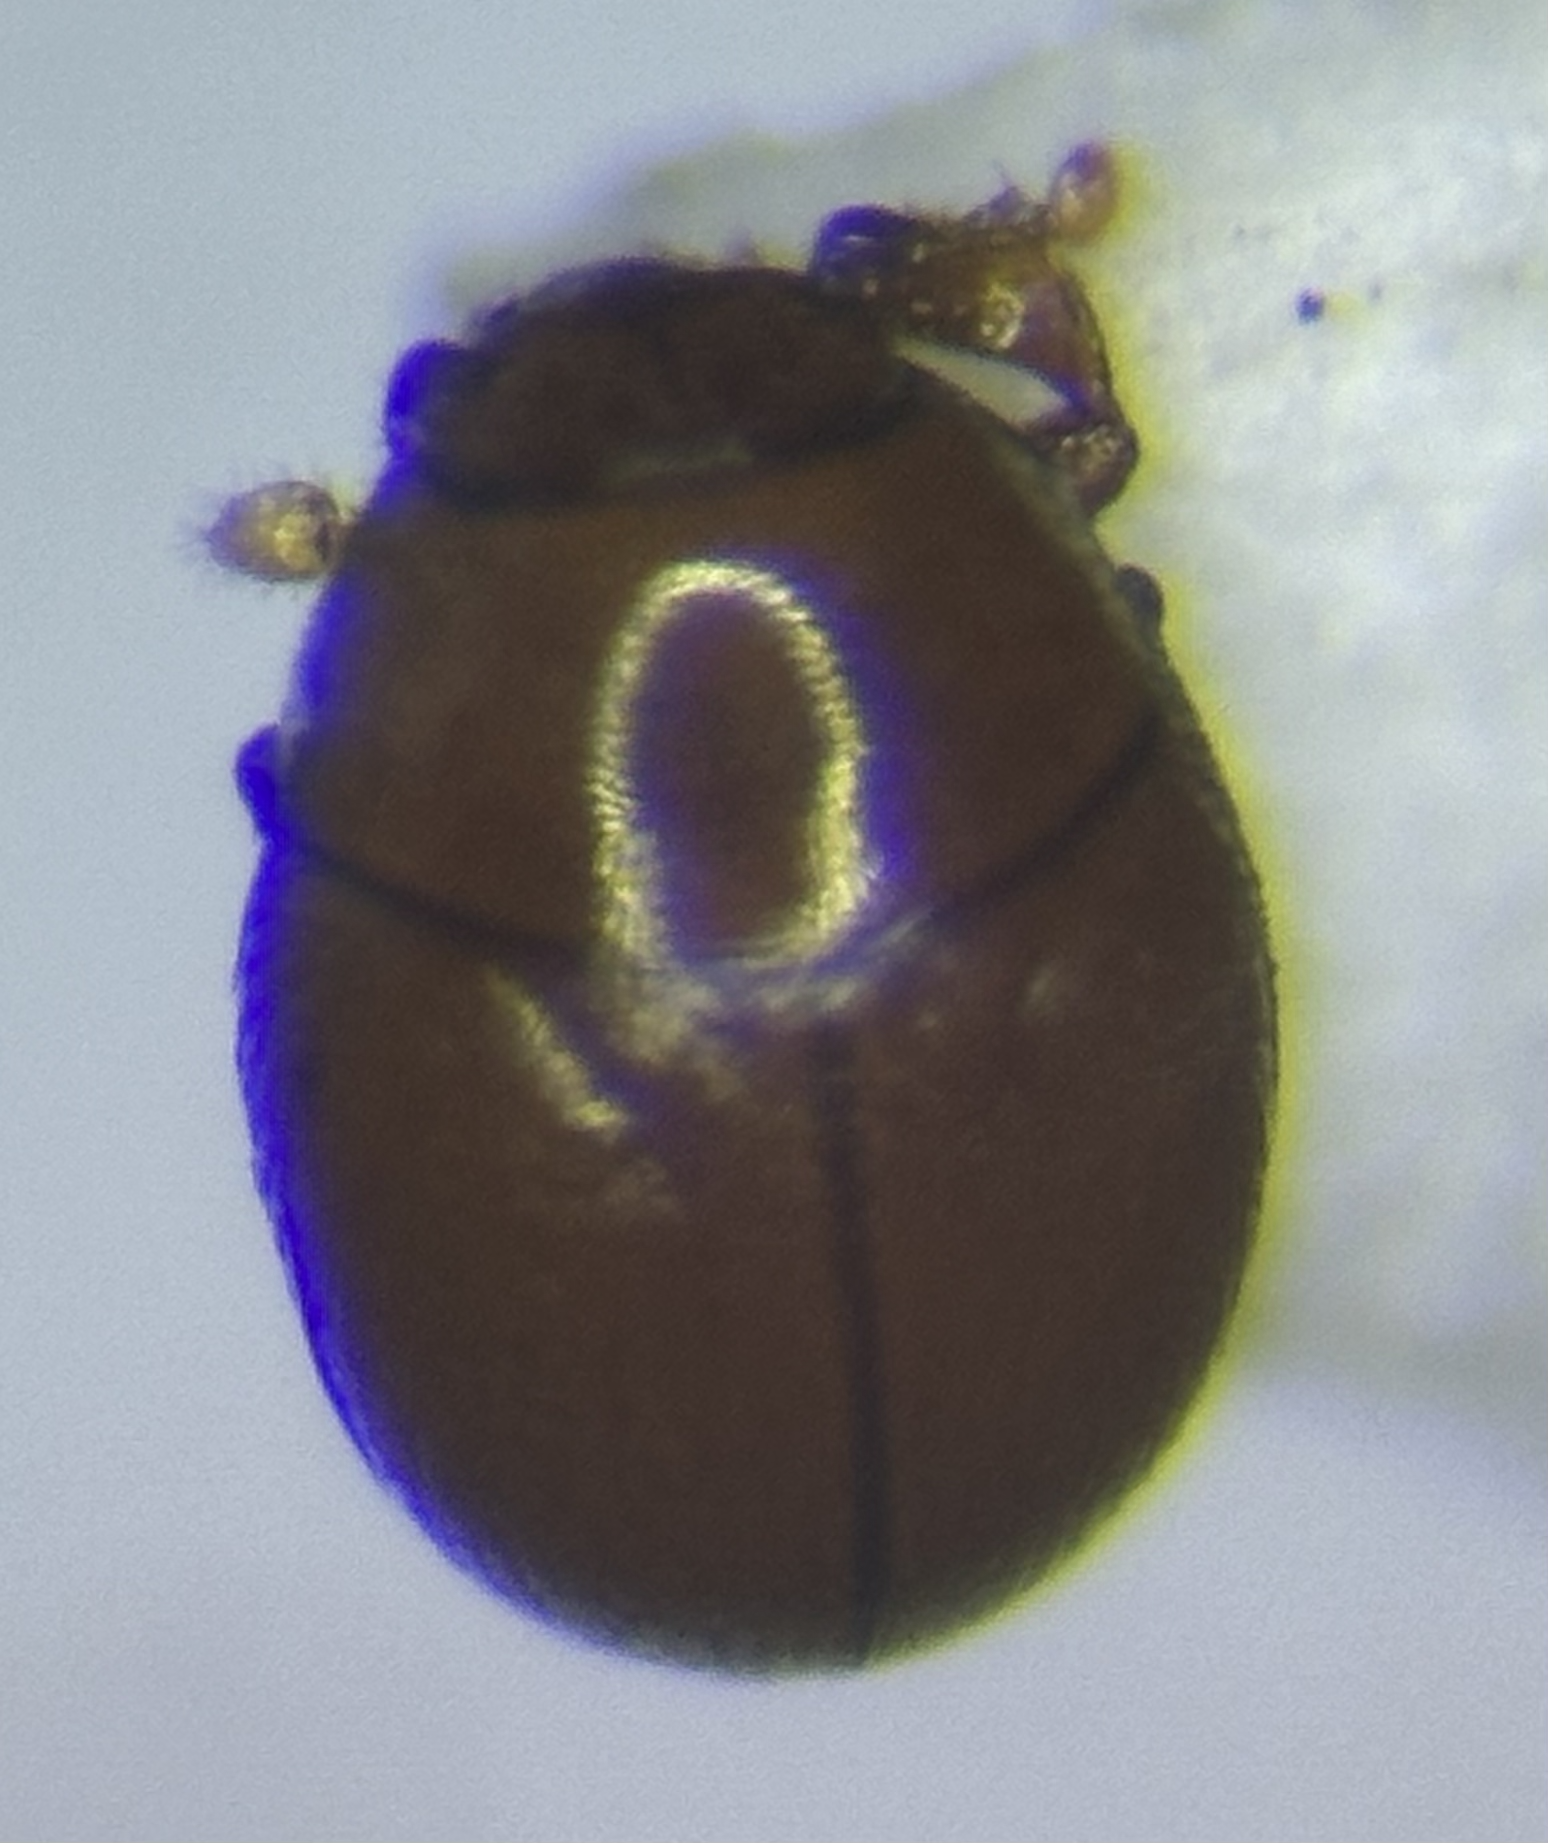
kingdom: Animalia
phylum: Arthropoda
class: Insecta
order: Coleoptera
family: Histeridae
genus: Bacanius
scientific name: Bacanius punctiformis
